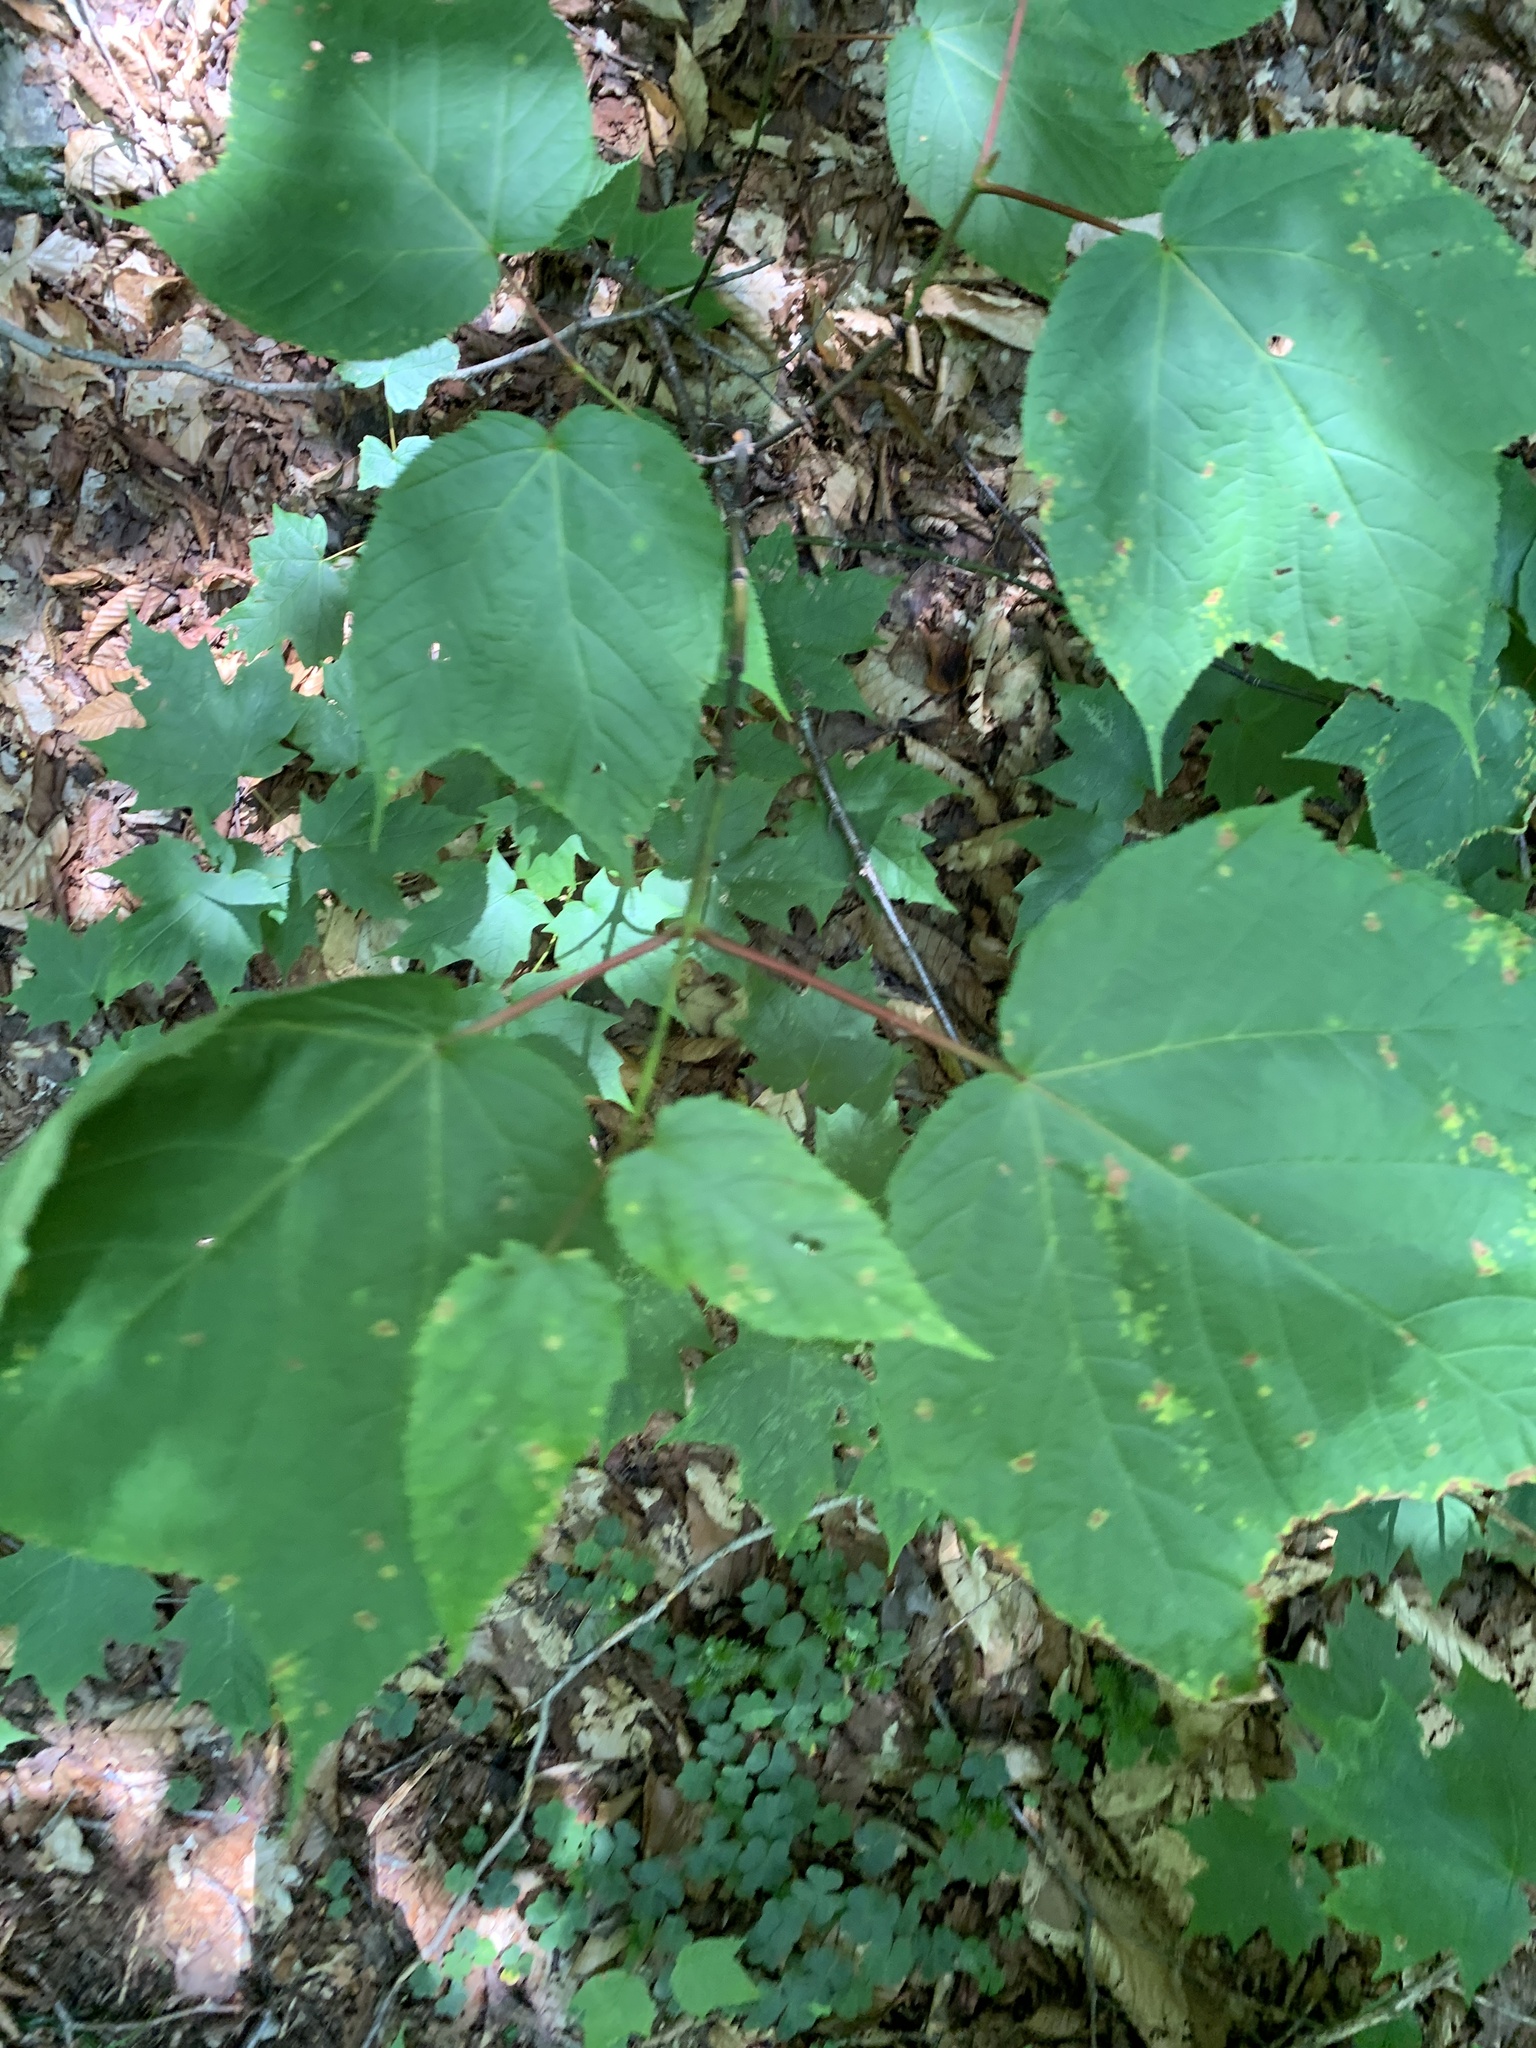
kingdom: Plantae
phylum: Tracheophyta
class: Magnoliopsida
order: Sapindales
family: Sapindaceae
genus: Acer
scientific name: Acer pensylvanicum
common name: Moosewood
